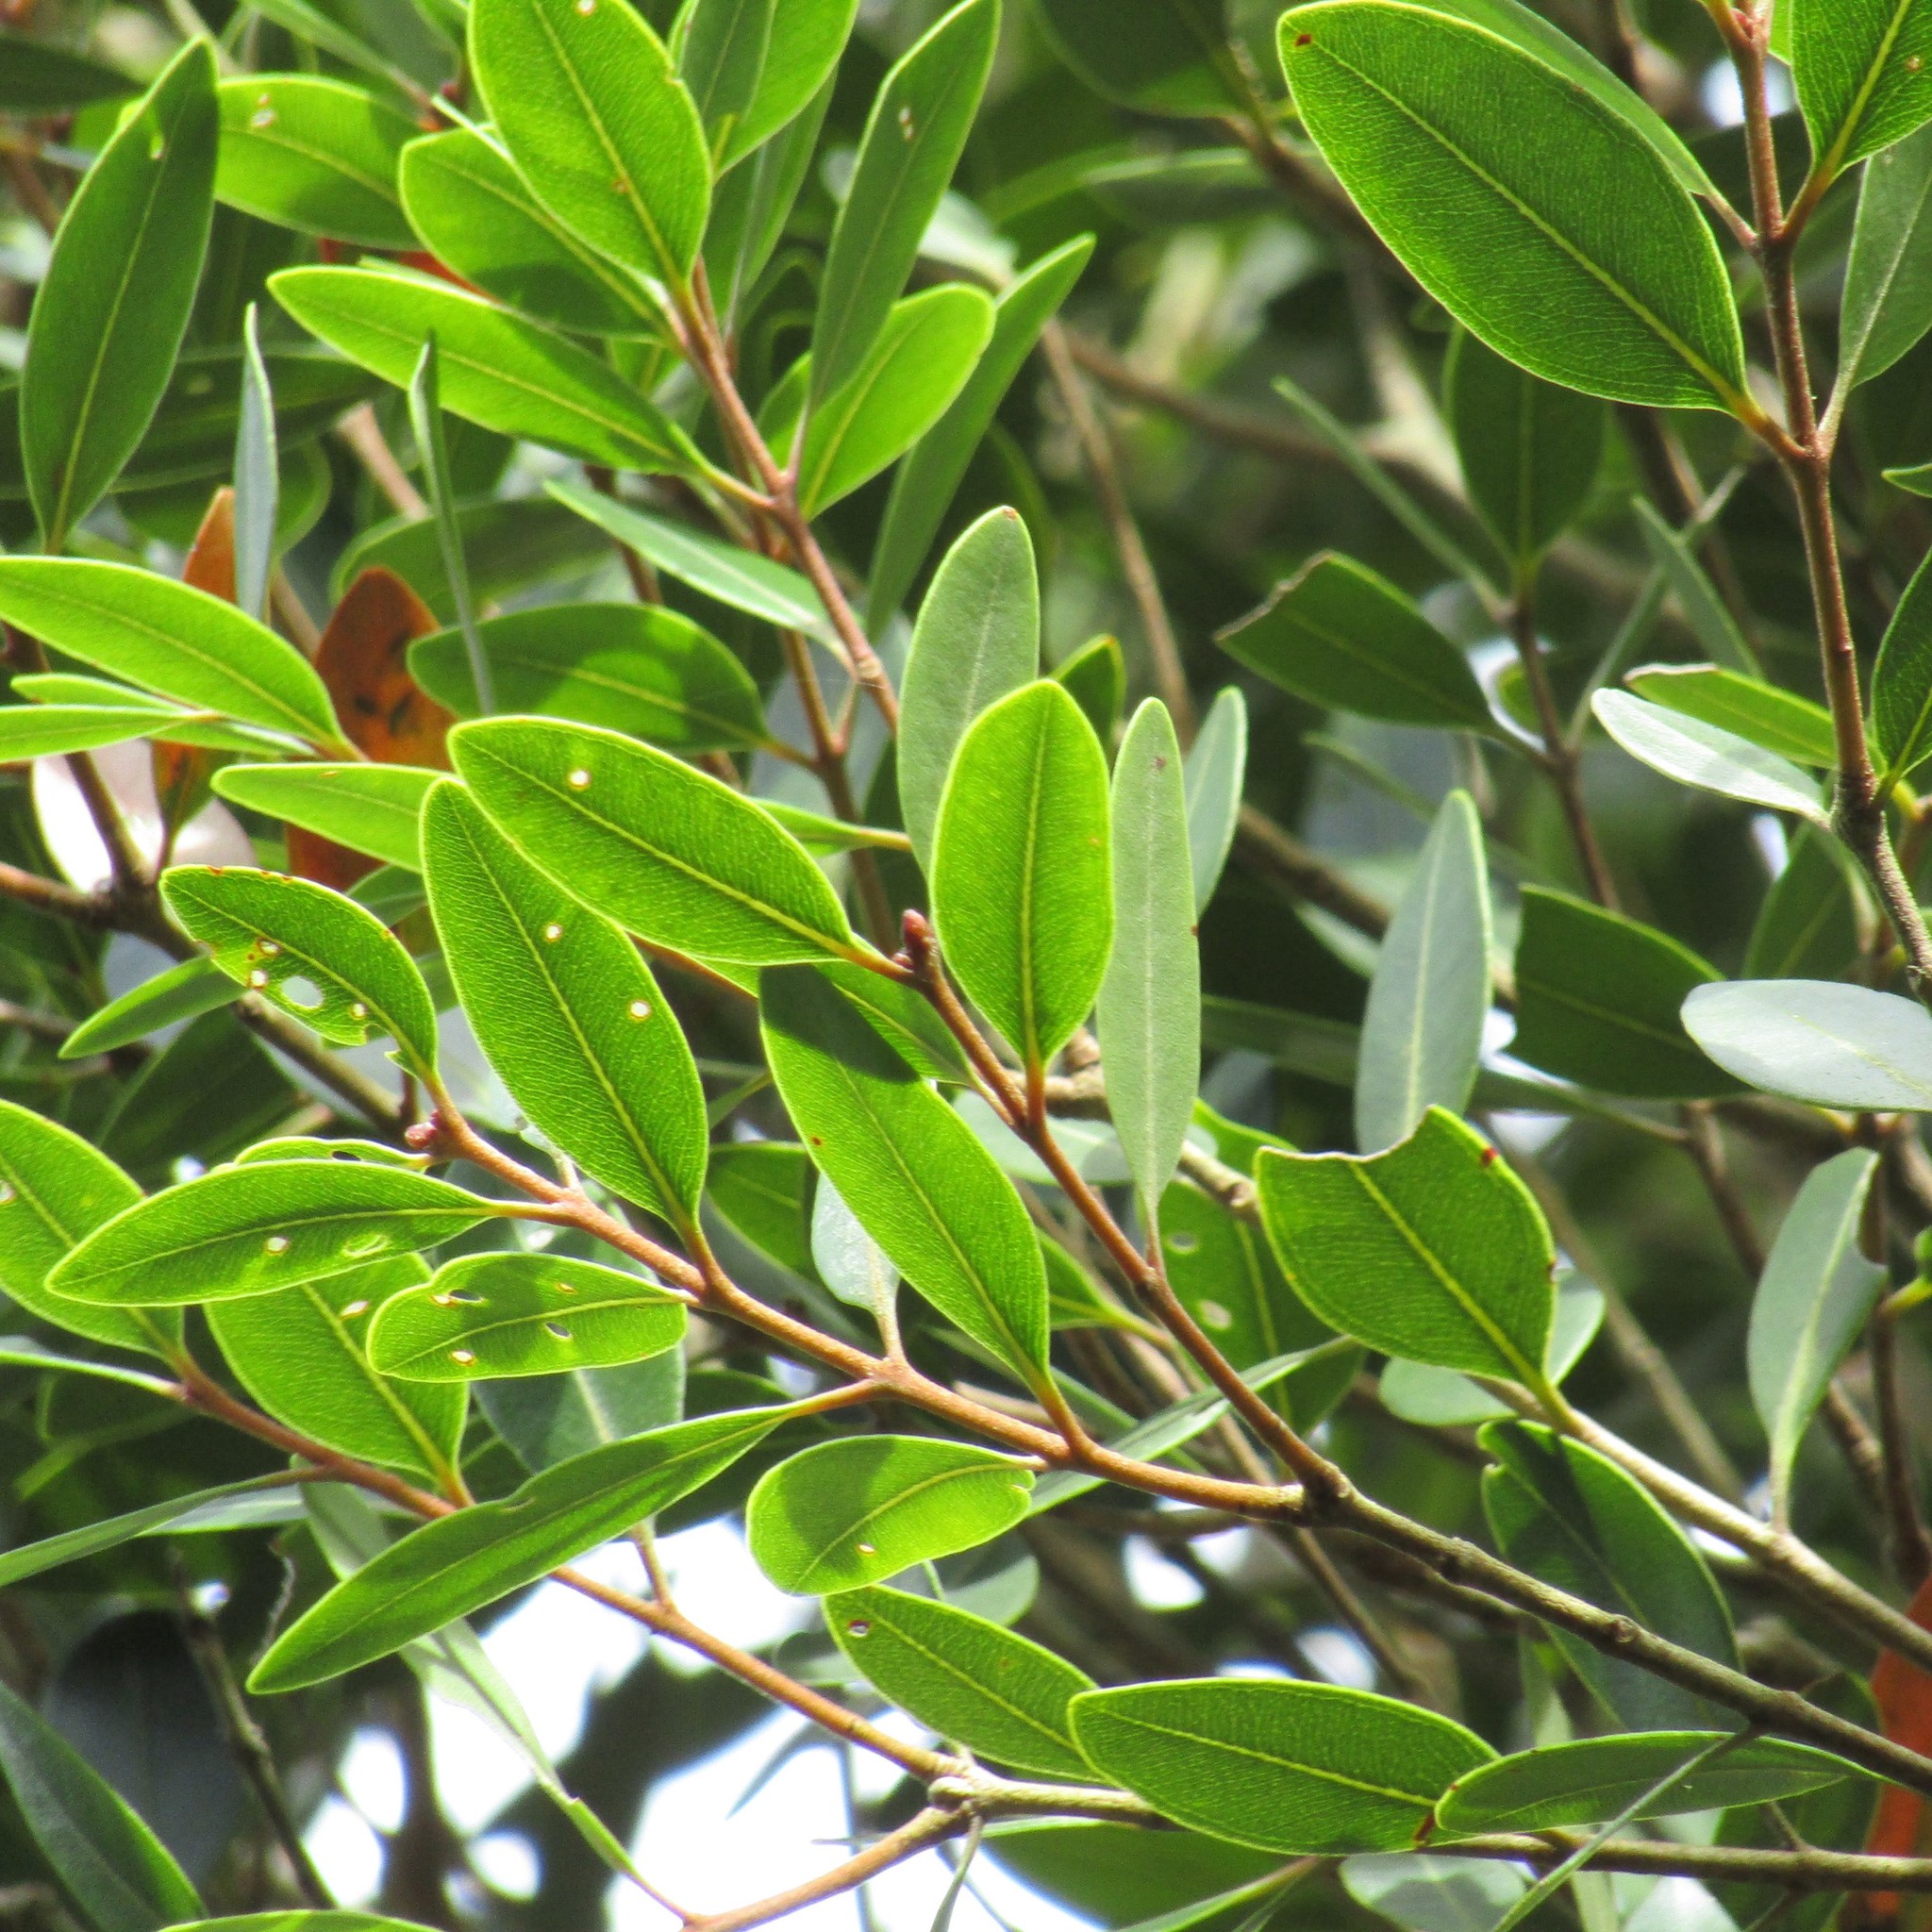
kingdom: Plantae
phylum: Tracheophyta
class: Magnoliopsida
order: Myrtales
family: Myrtaceae
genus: Metrosideros
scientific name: Metrosideros robusta
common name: Northern rata
